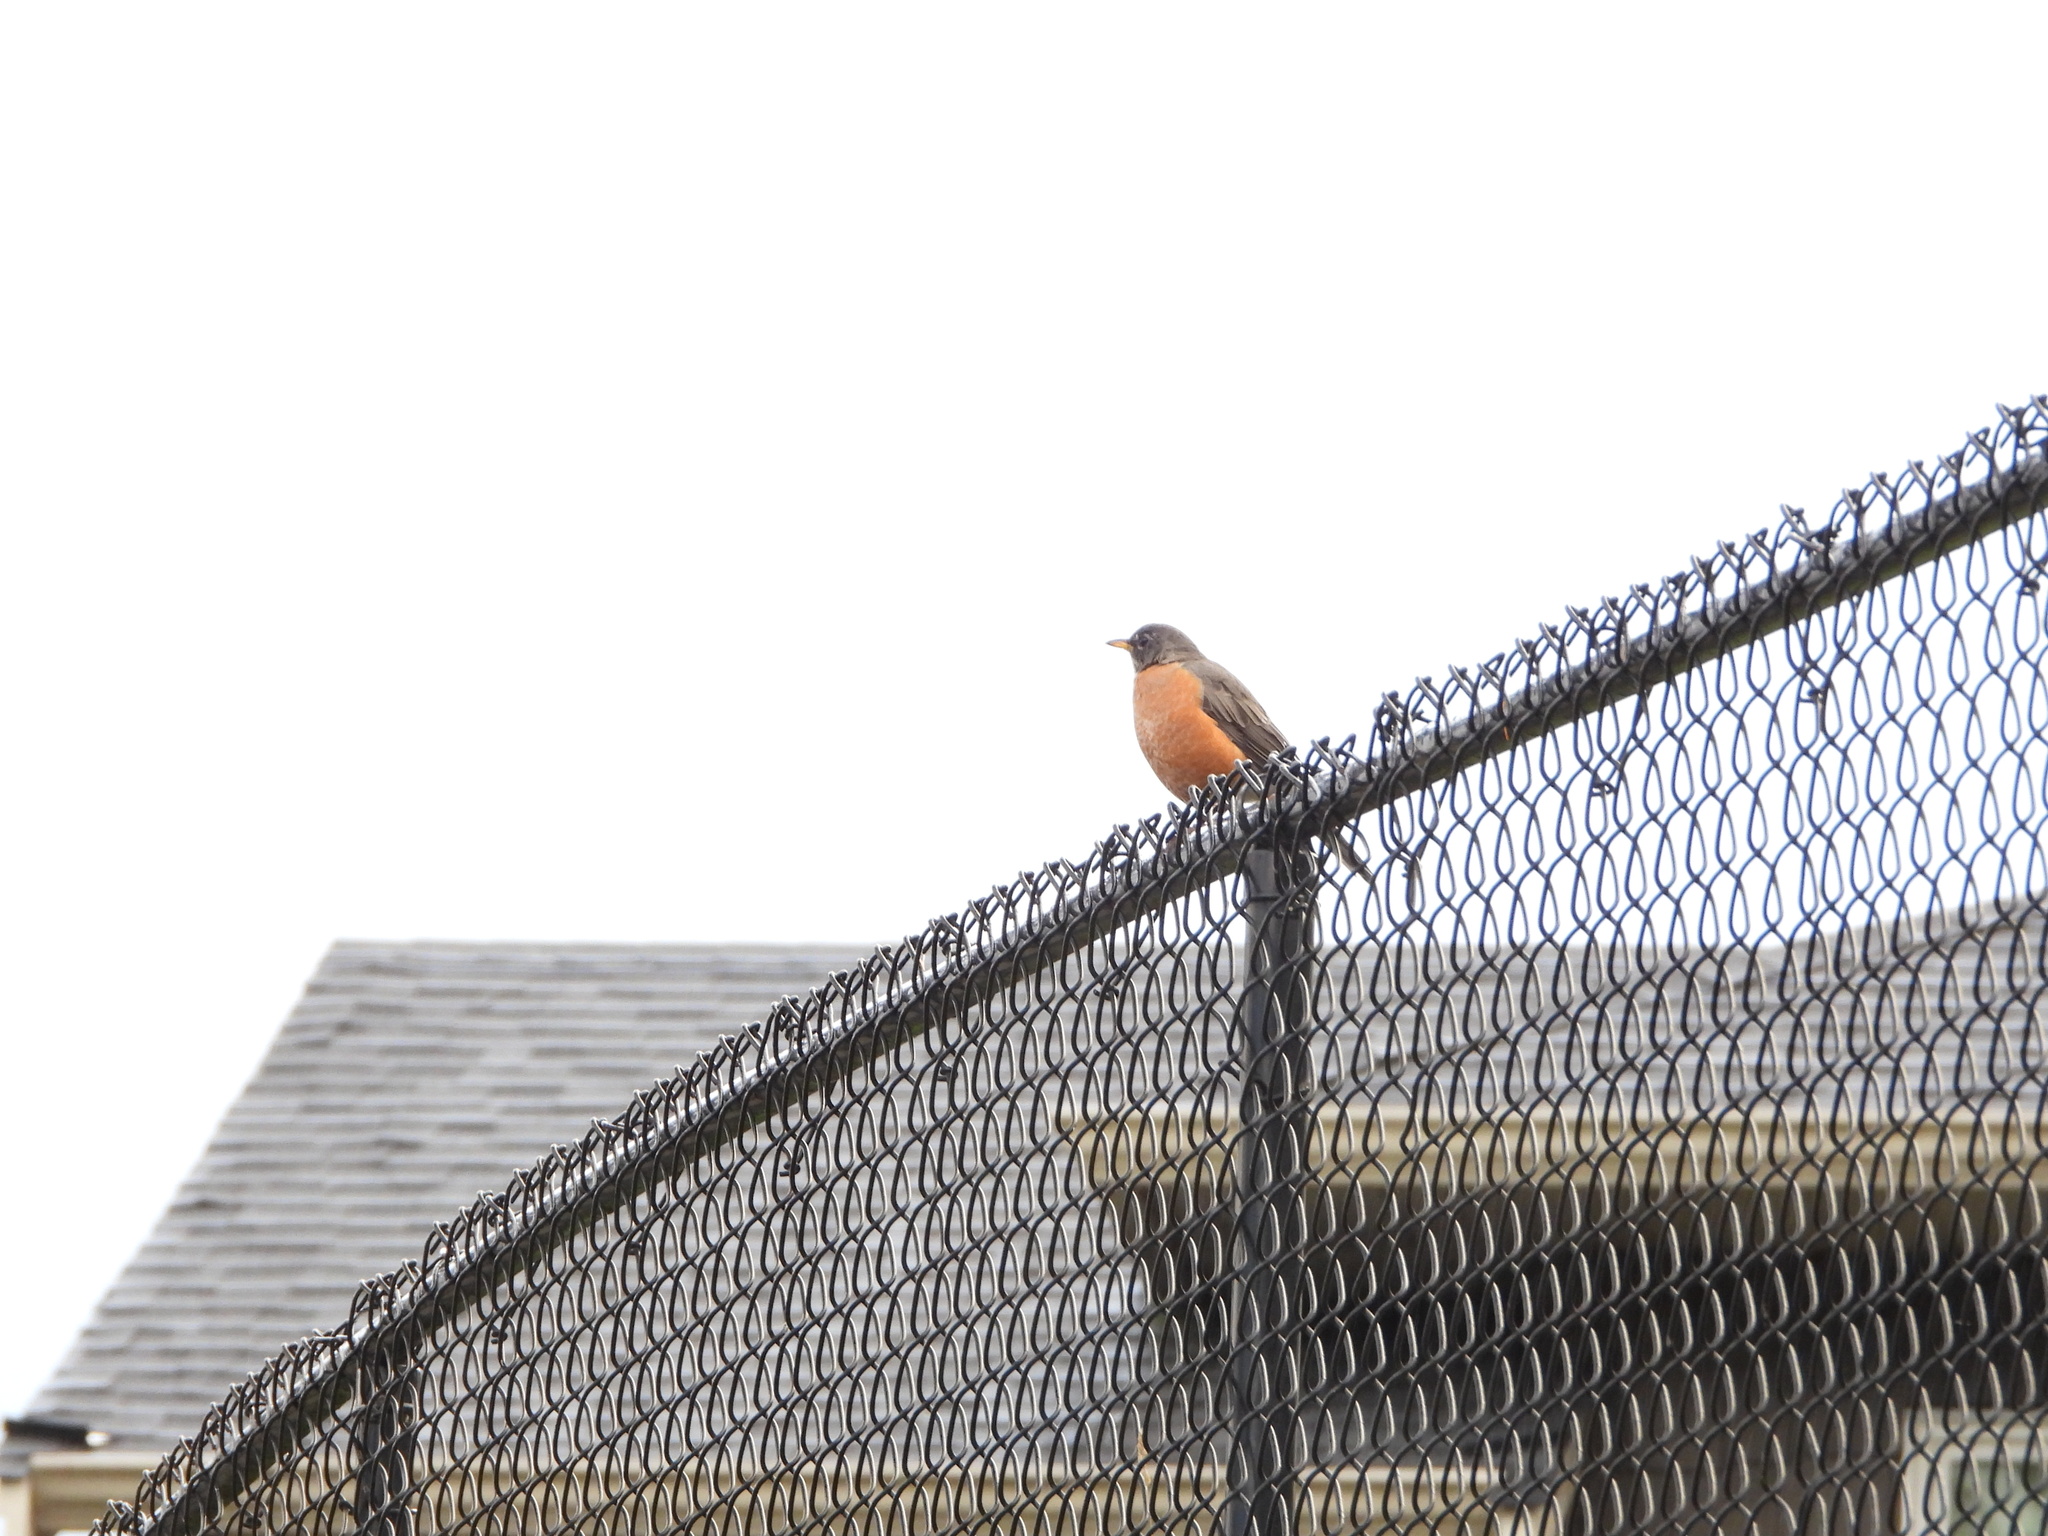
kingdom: Animalia
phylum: Chordata
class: Aves
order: Passeriformes
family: Turdidae
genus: Turdus
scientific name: Turdus migratorius
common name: American robin
